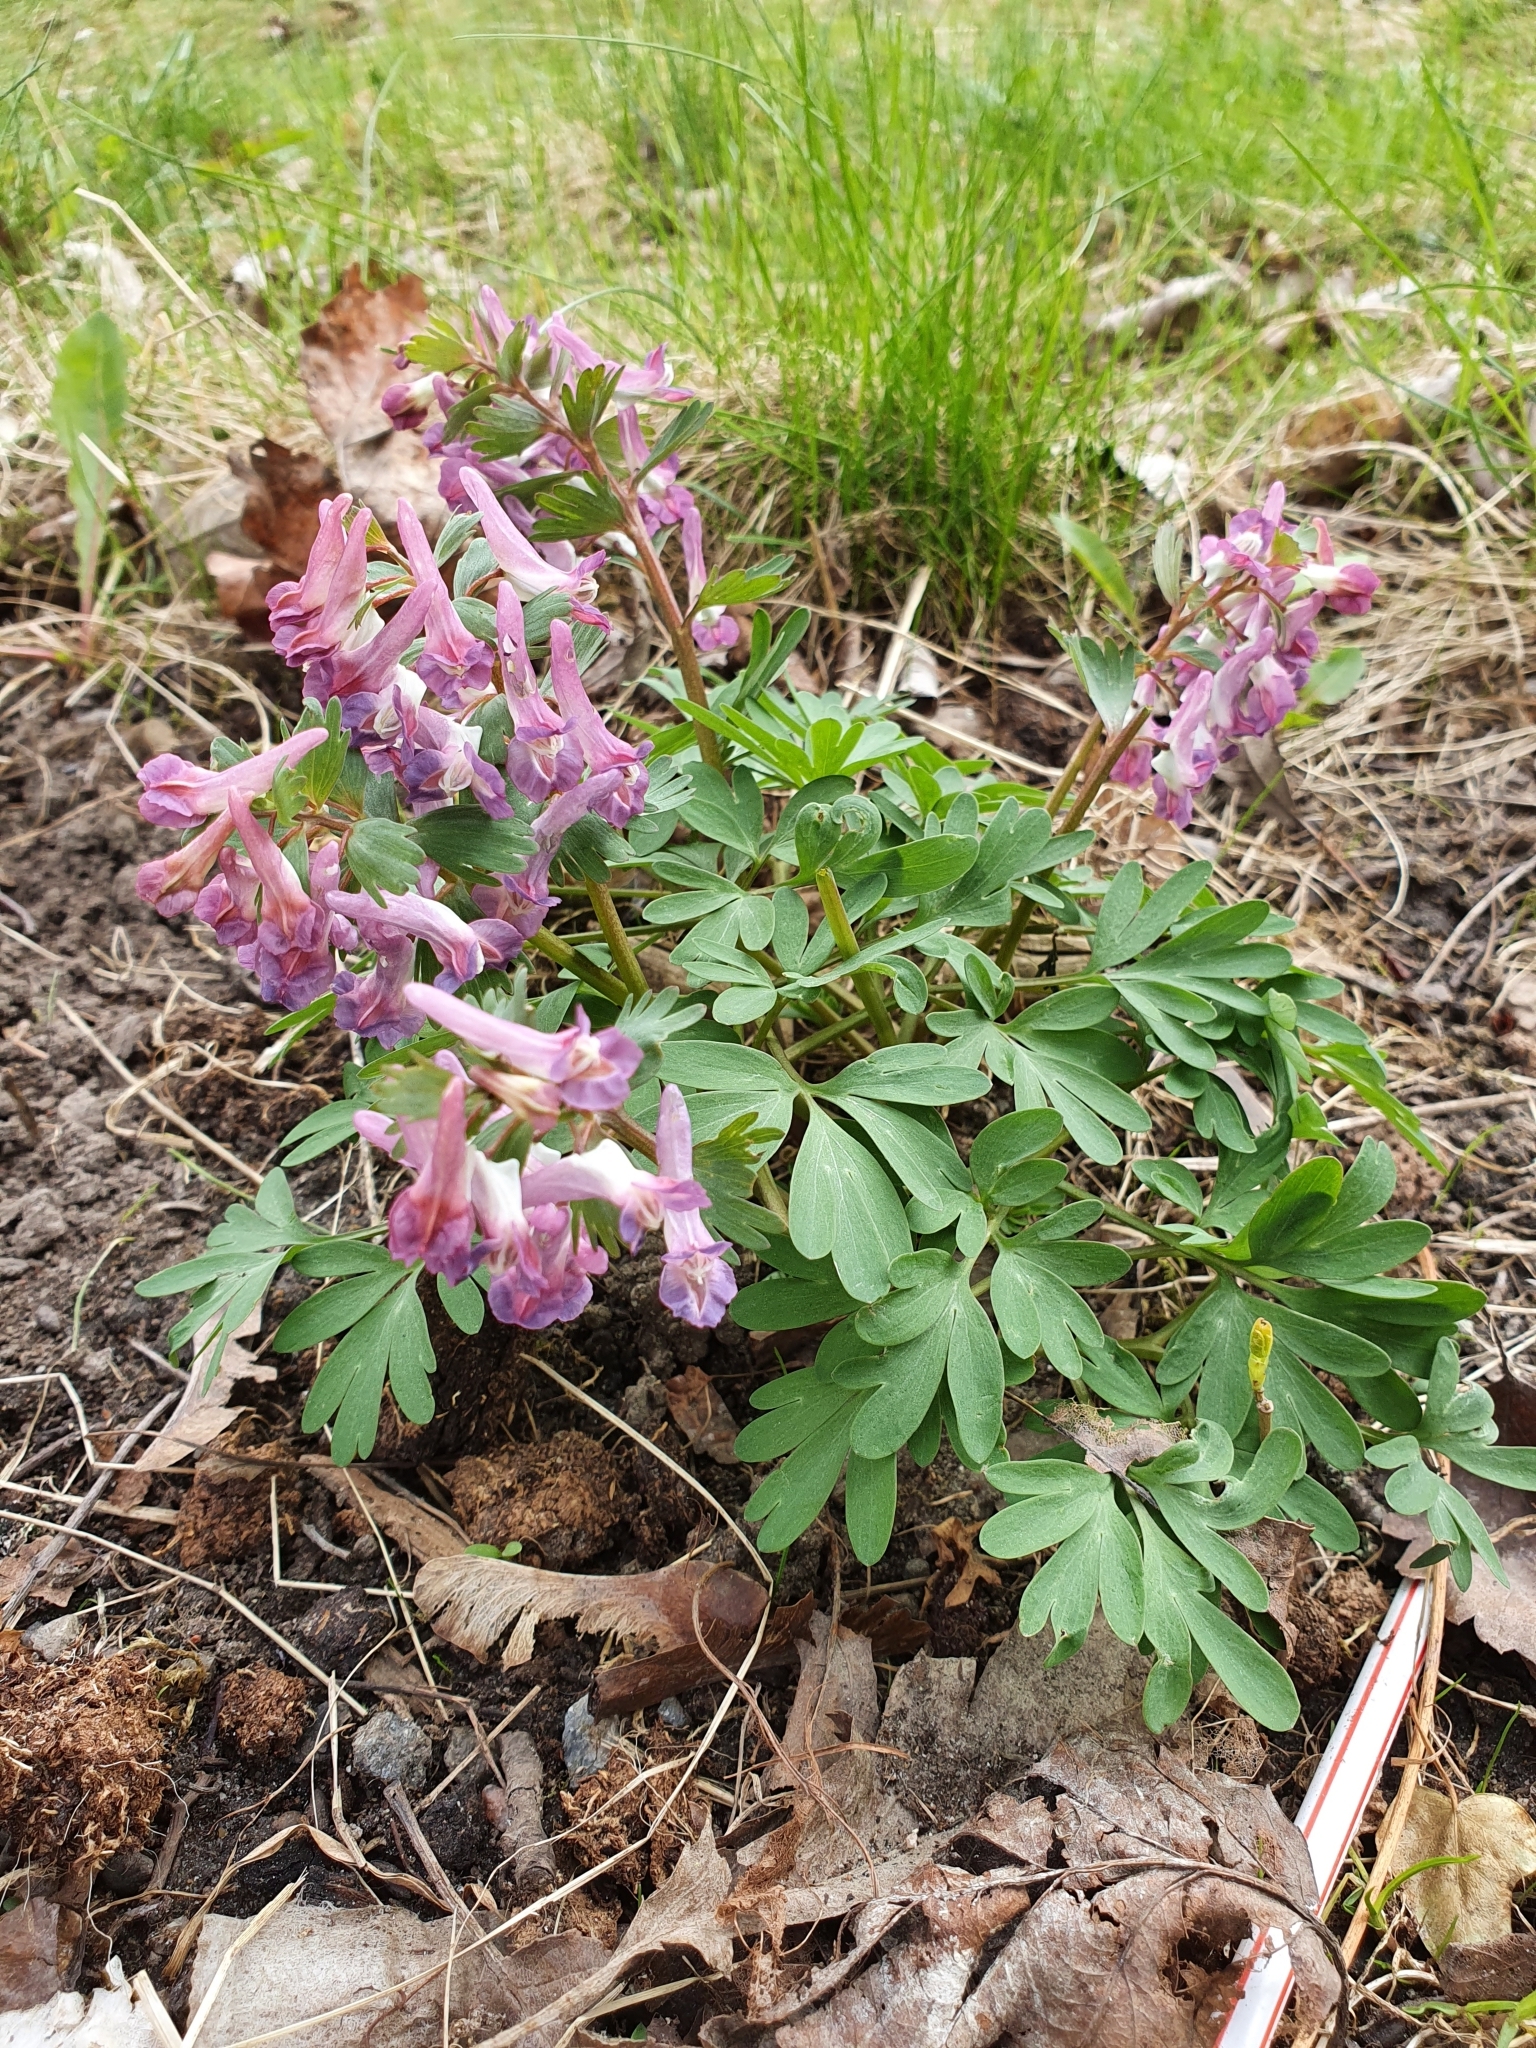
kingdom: Plantae
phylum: Tracheophyta
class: Magnoliopsida
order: Ranunculales
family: Papaveraceae
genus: Corydalis
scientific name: Corydalis solida
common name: Bird-in-a-bush
